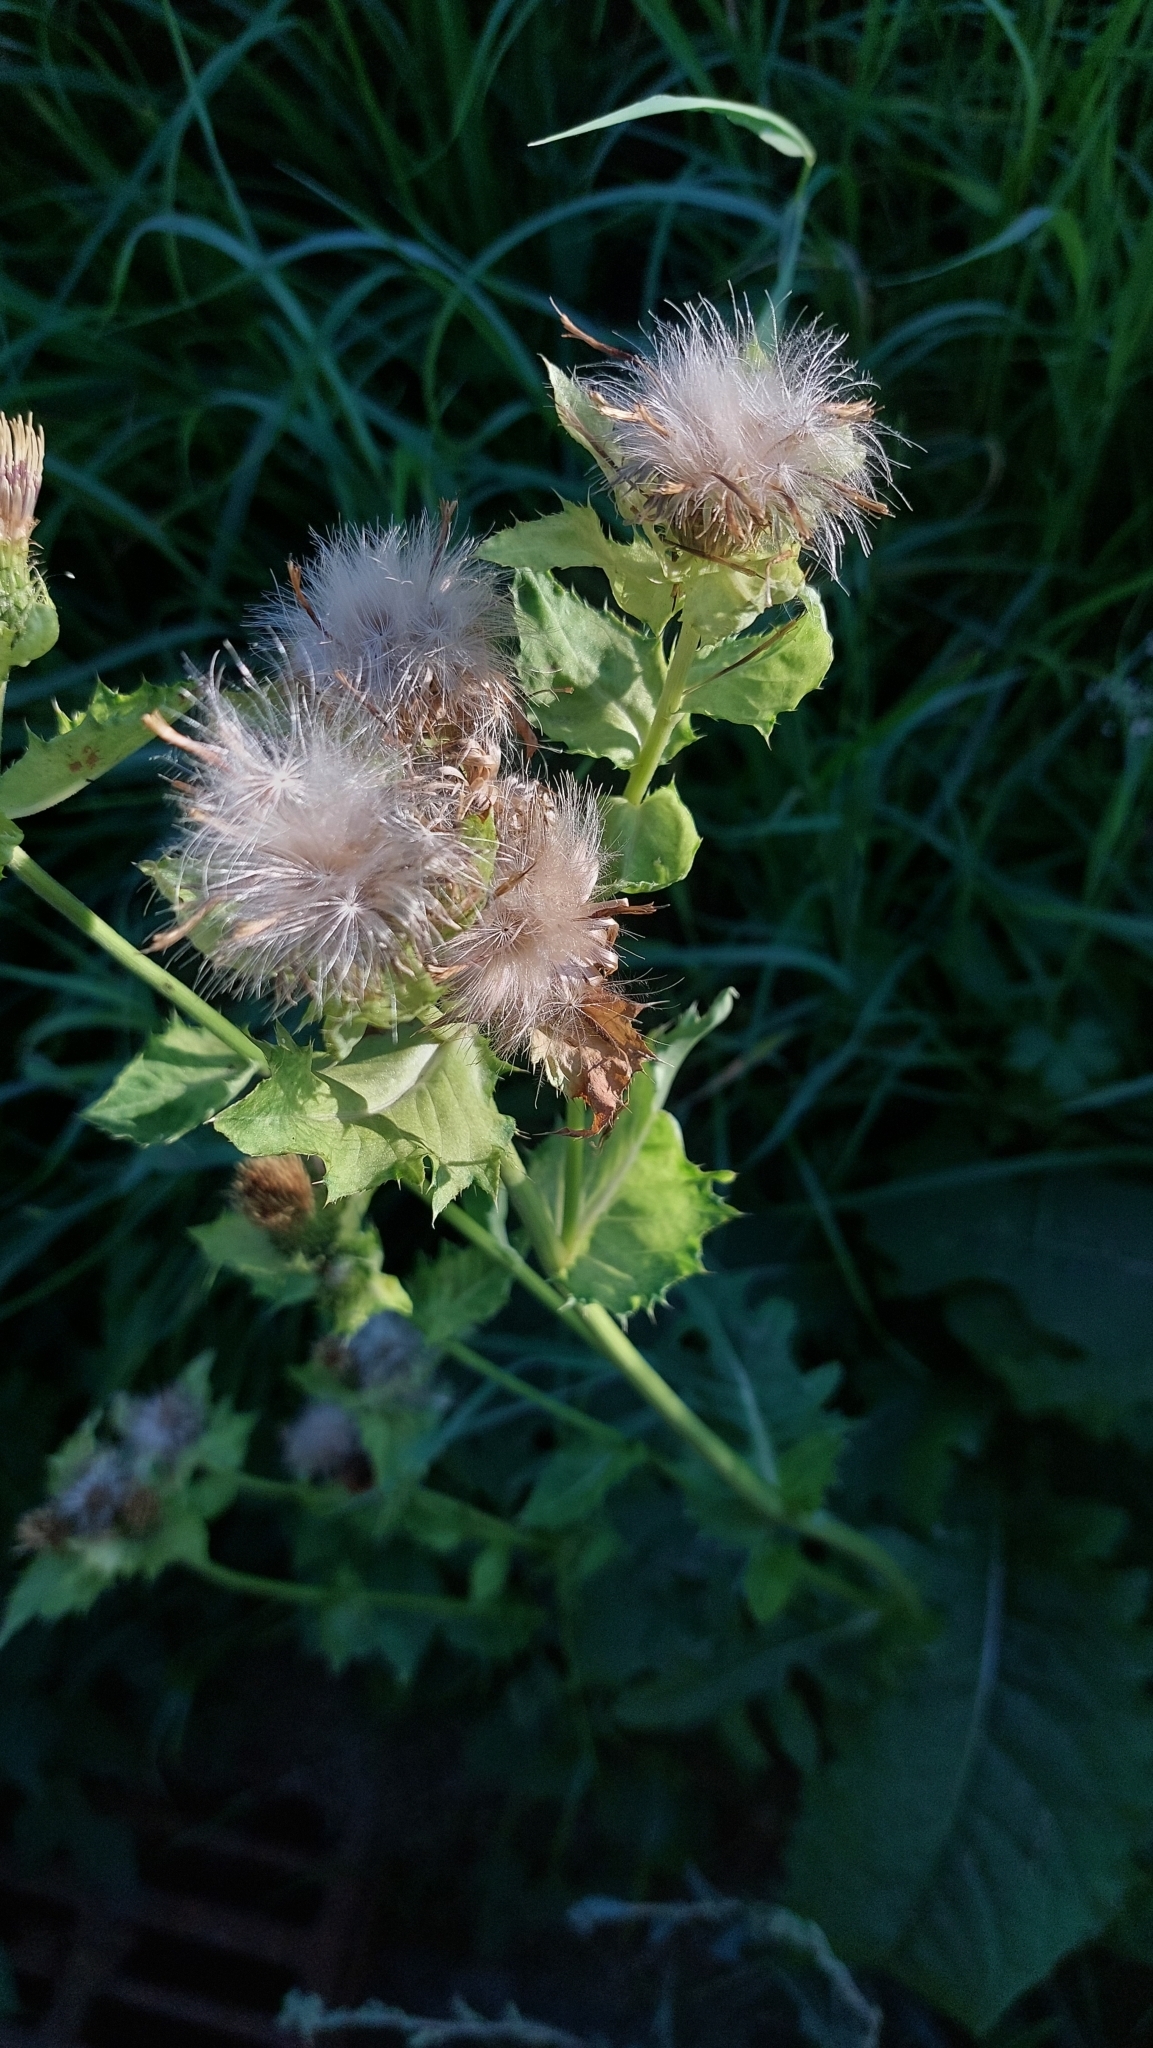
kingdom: Plantae
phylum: Tracheophyta
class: Magnoliopsida
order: Asterales
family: Asteraceae
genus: Cirsium
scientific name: Cirsium oleraceum
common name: Cabbage thistle
